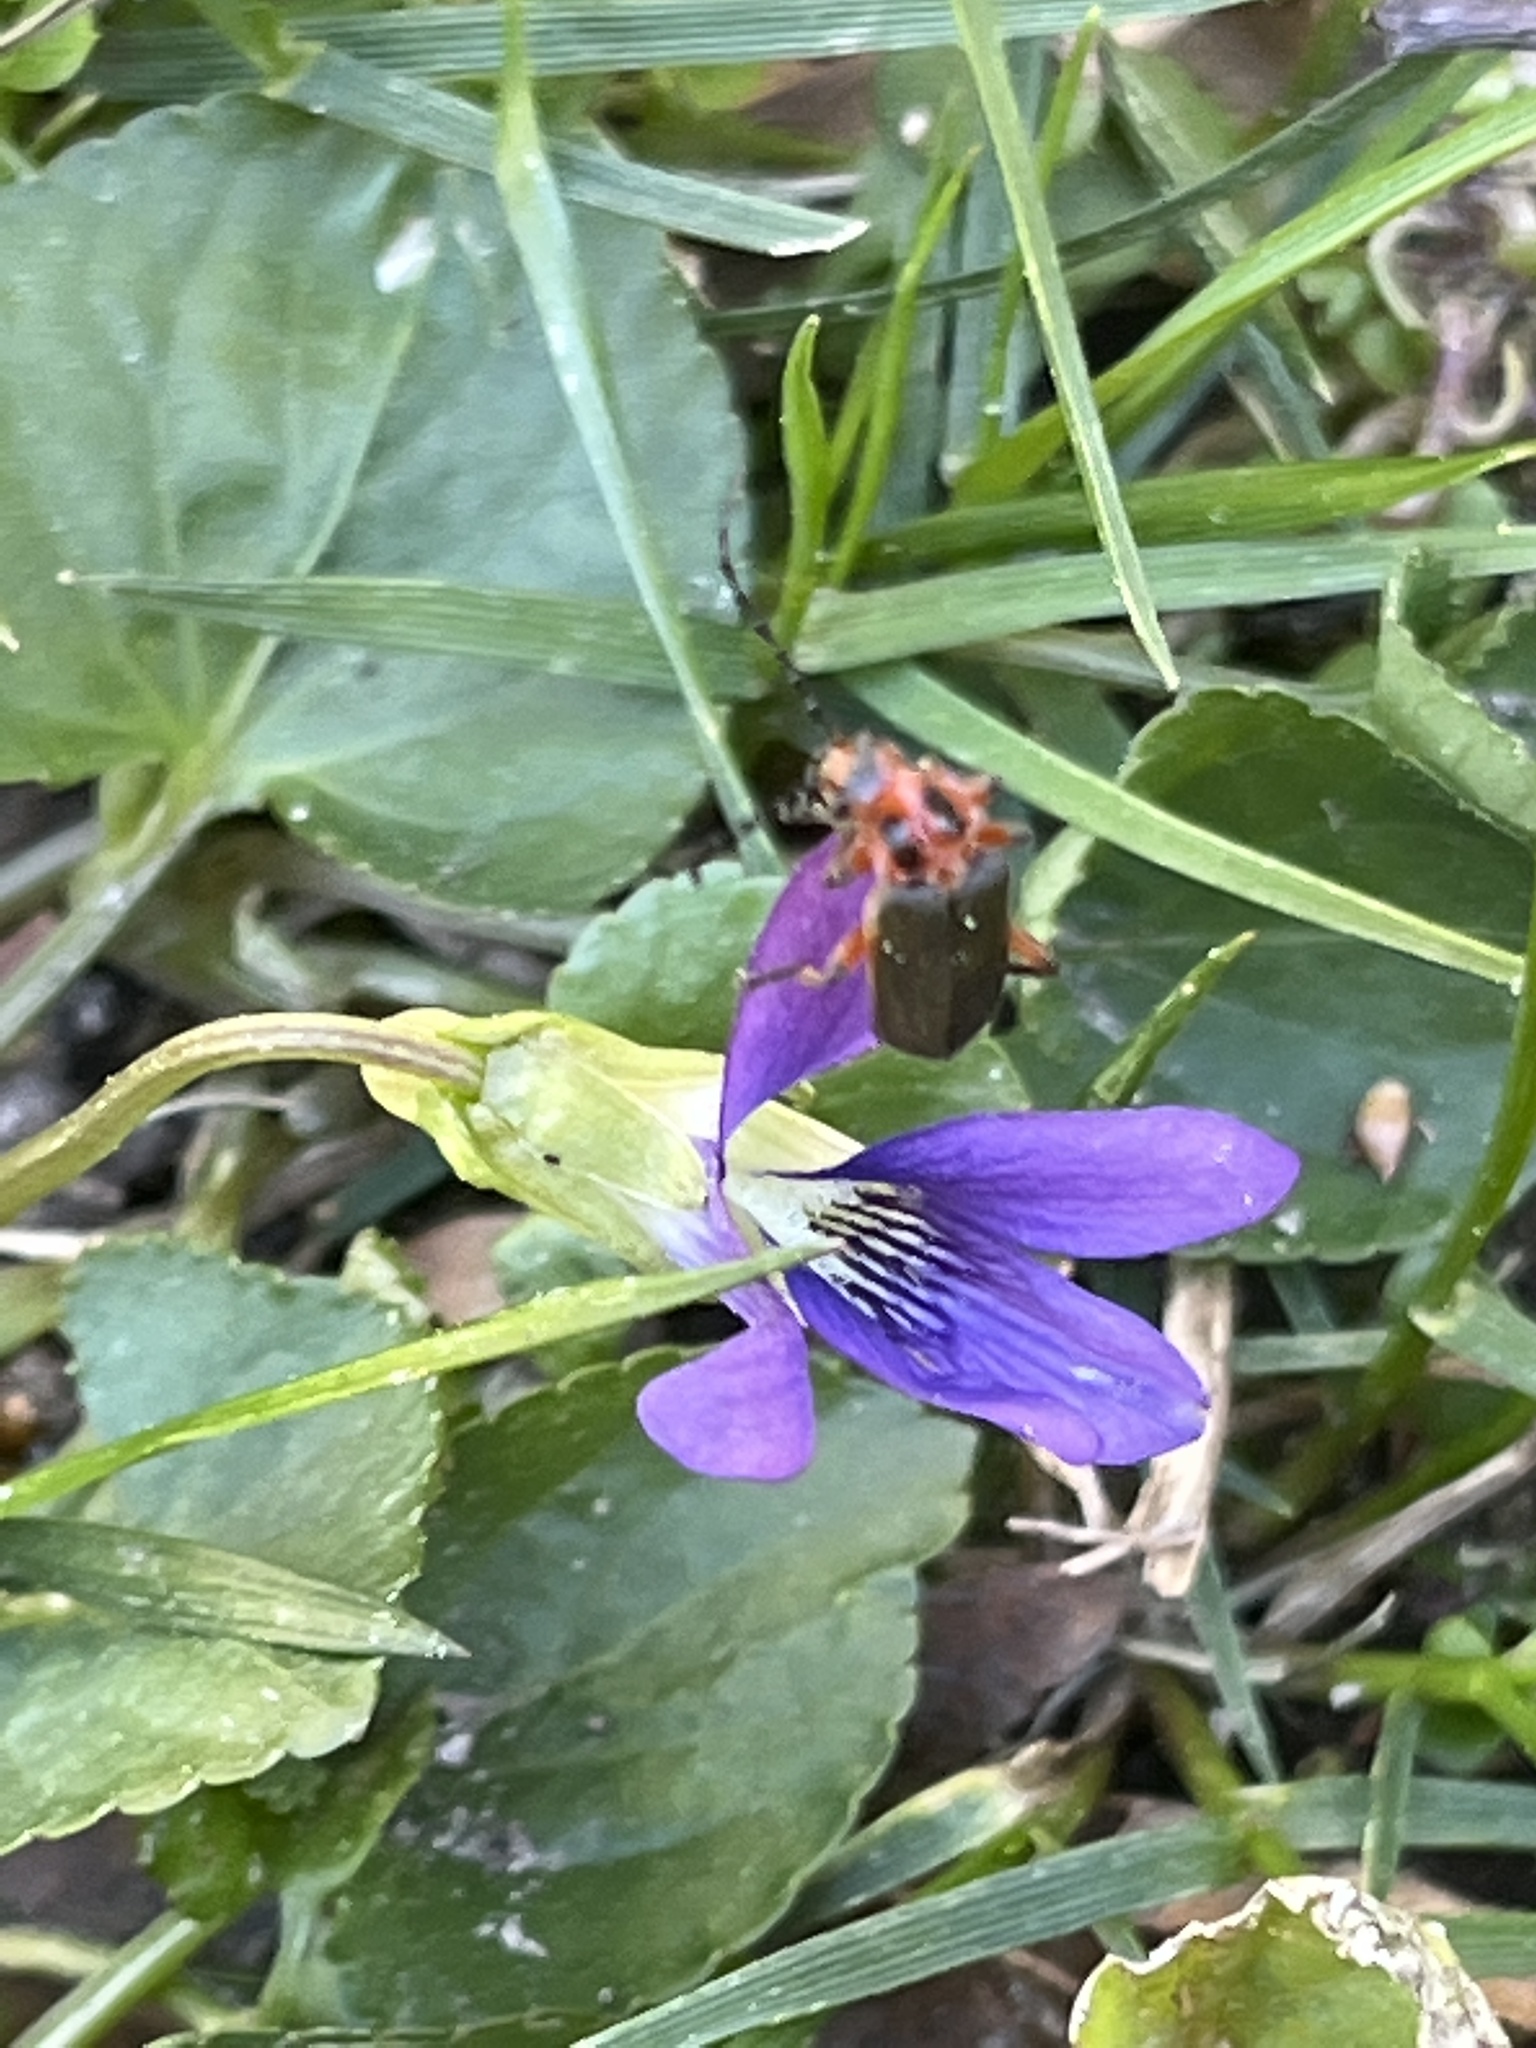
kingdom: Animalia
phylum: Arthropoda
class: Insecta
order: Coleoptera
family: Cantharidae
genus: Atalantycha
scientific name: Atalantycha bilineata
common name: Two-lined leatherwing
